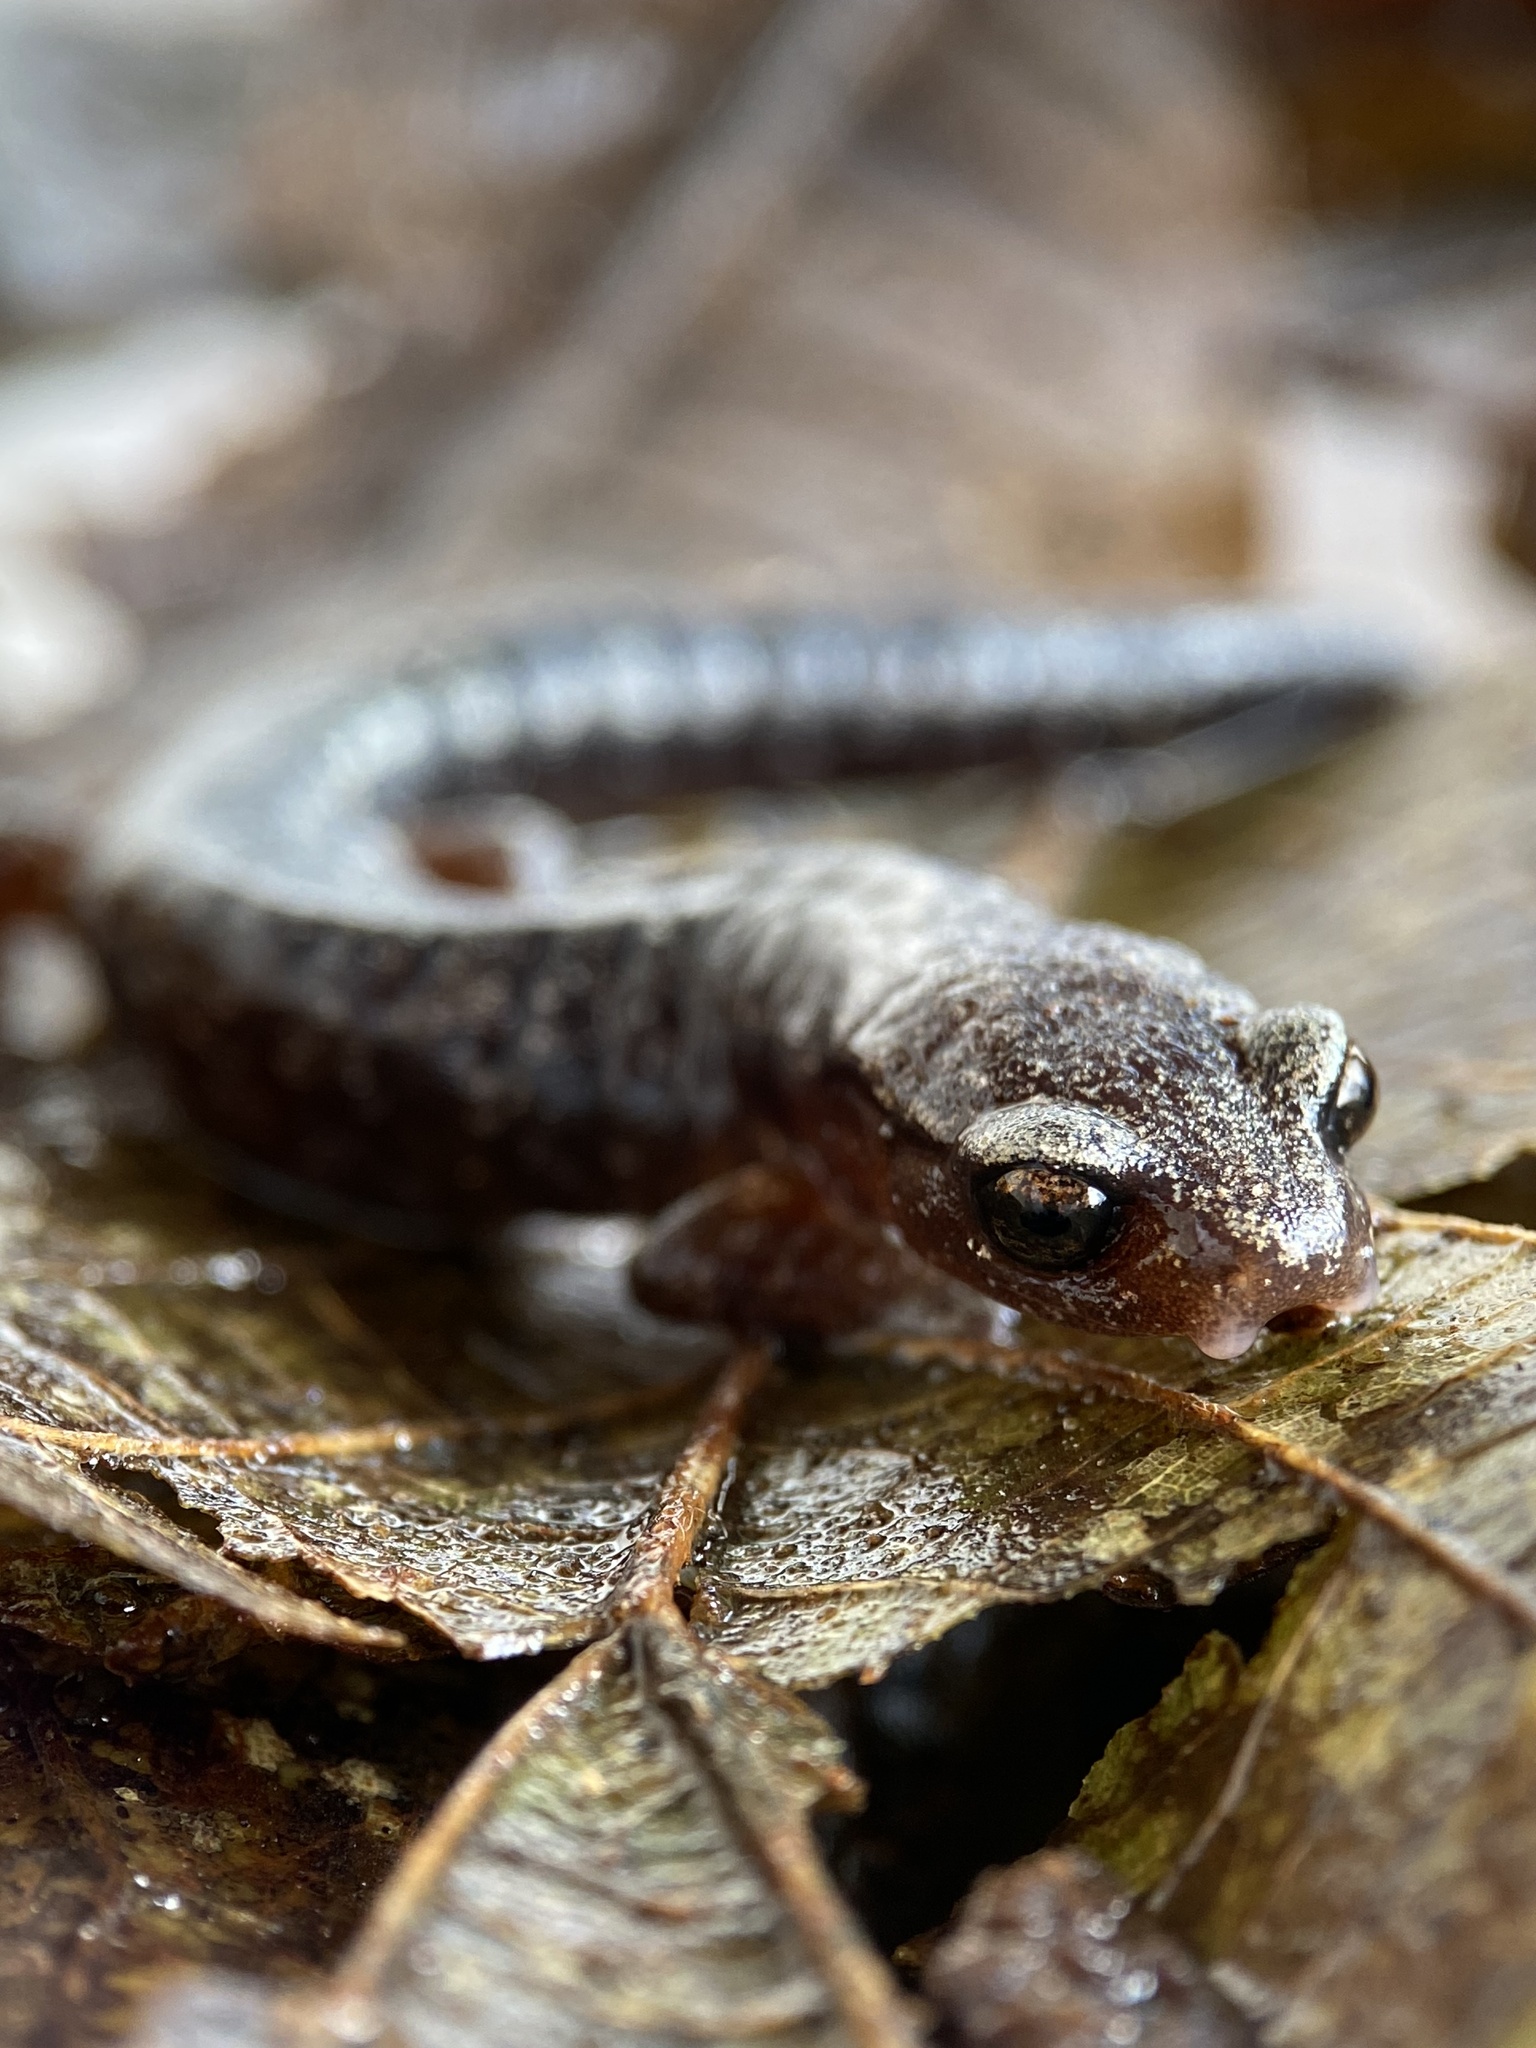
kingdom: Animalia
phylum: Chordata
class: Amphibia
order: Caudata
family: Plethodontidae
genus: Bolitoglossa
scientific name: Bolitoglossa synoria
